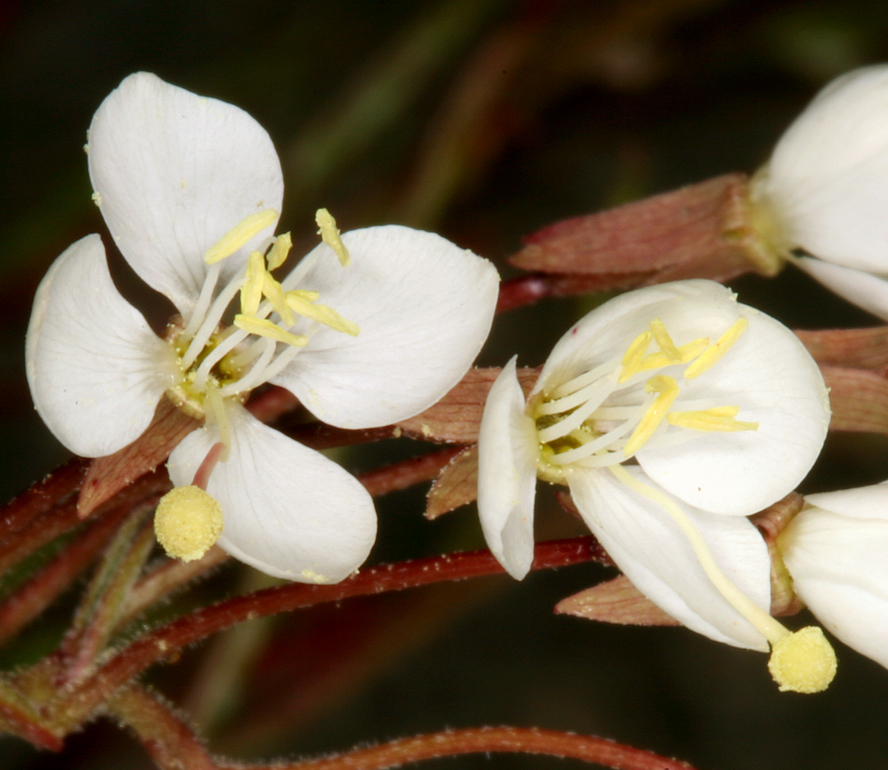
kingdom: Plantae
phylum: Tracheophyta
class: Magnoliopsida
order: Myrtales
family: Onagraceae
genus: Eremothera
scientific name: Eremothera refracta
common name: Narrowleaf suncup
